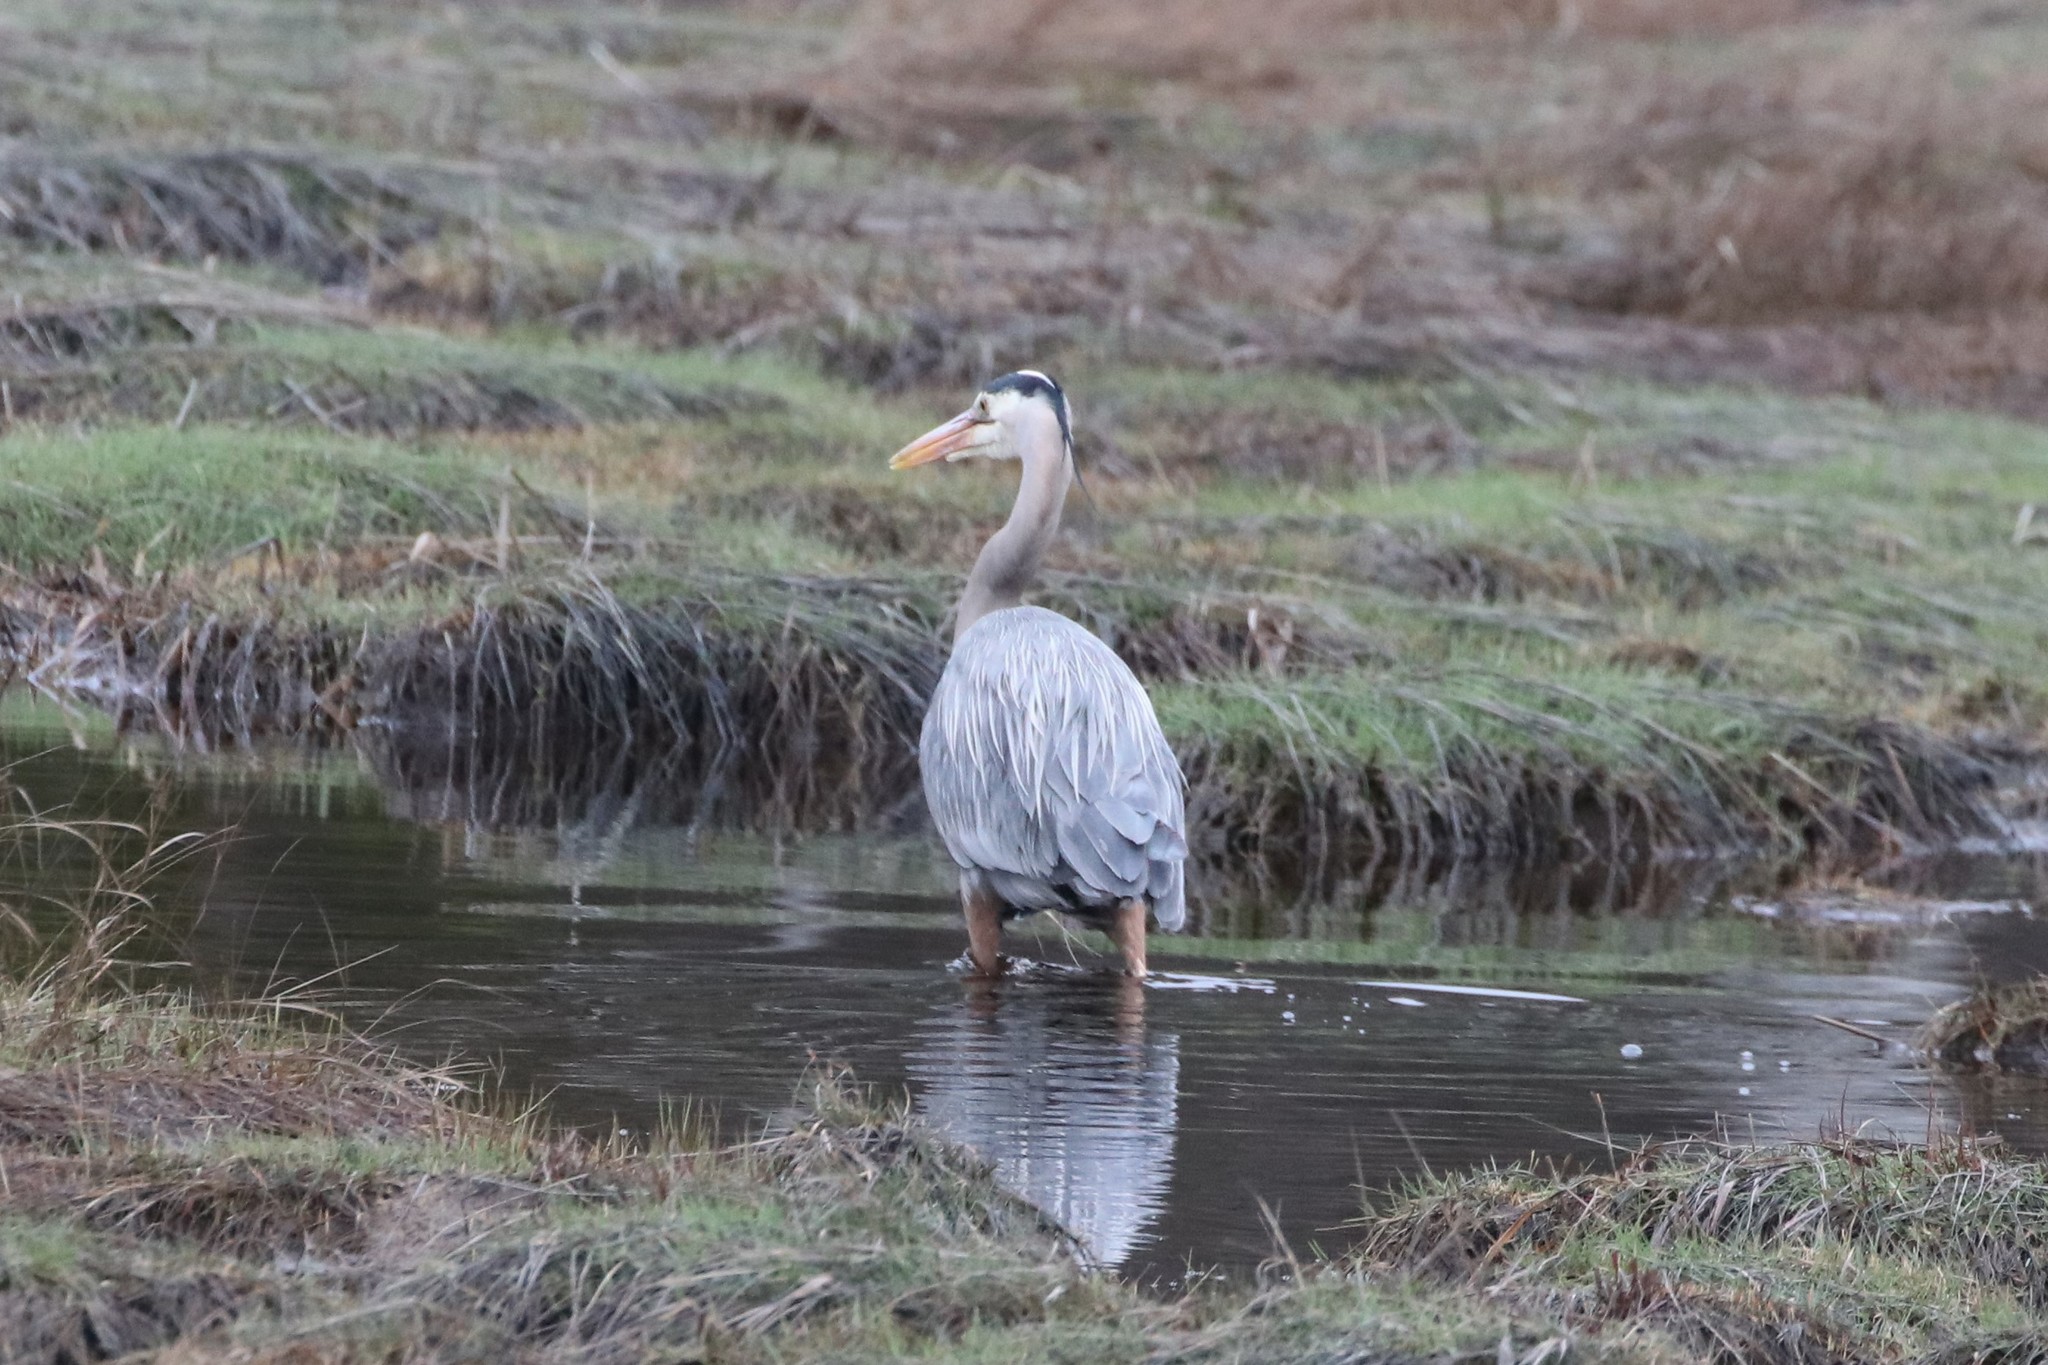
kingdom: Animalia
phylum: Chordata
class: Aves
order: Pelecaniformes
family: Ardeidae
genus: Ardea
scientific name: Ardea herodias
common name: Great blue heron
